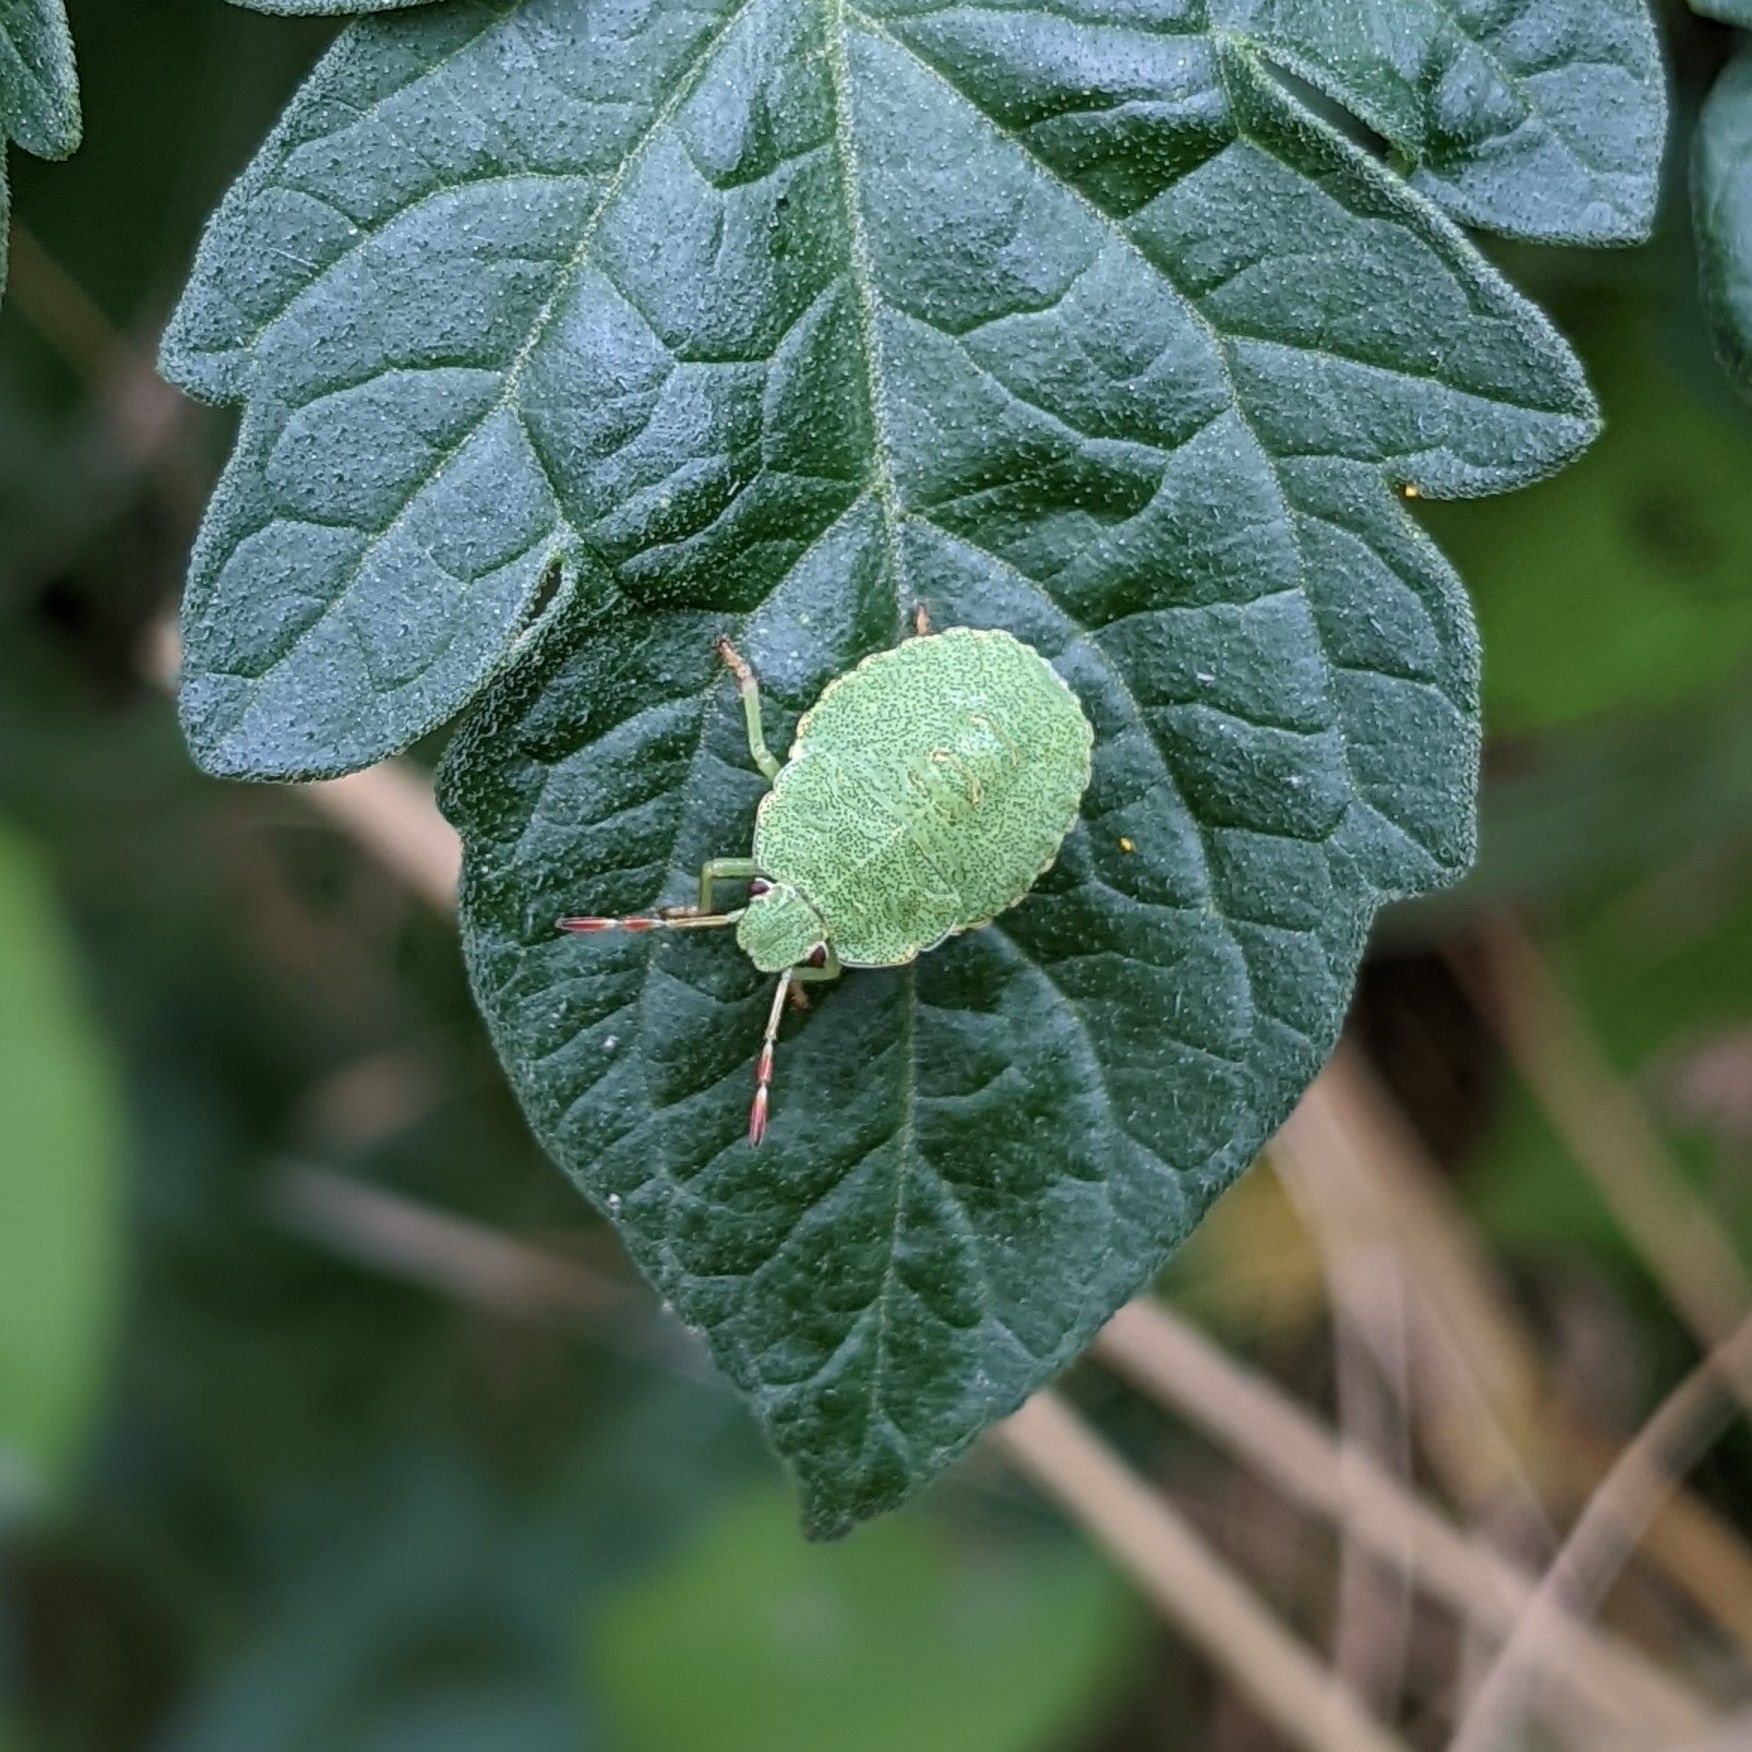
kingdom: Animalia
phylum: Arthropoda
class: Insecta
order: Hemiptera
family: Pentatomidae
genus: Palomena
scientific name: Palomena prasina
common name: Green shieldbug
